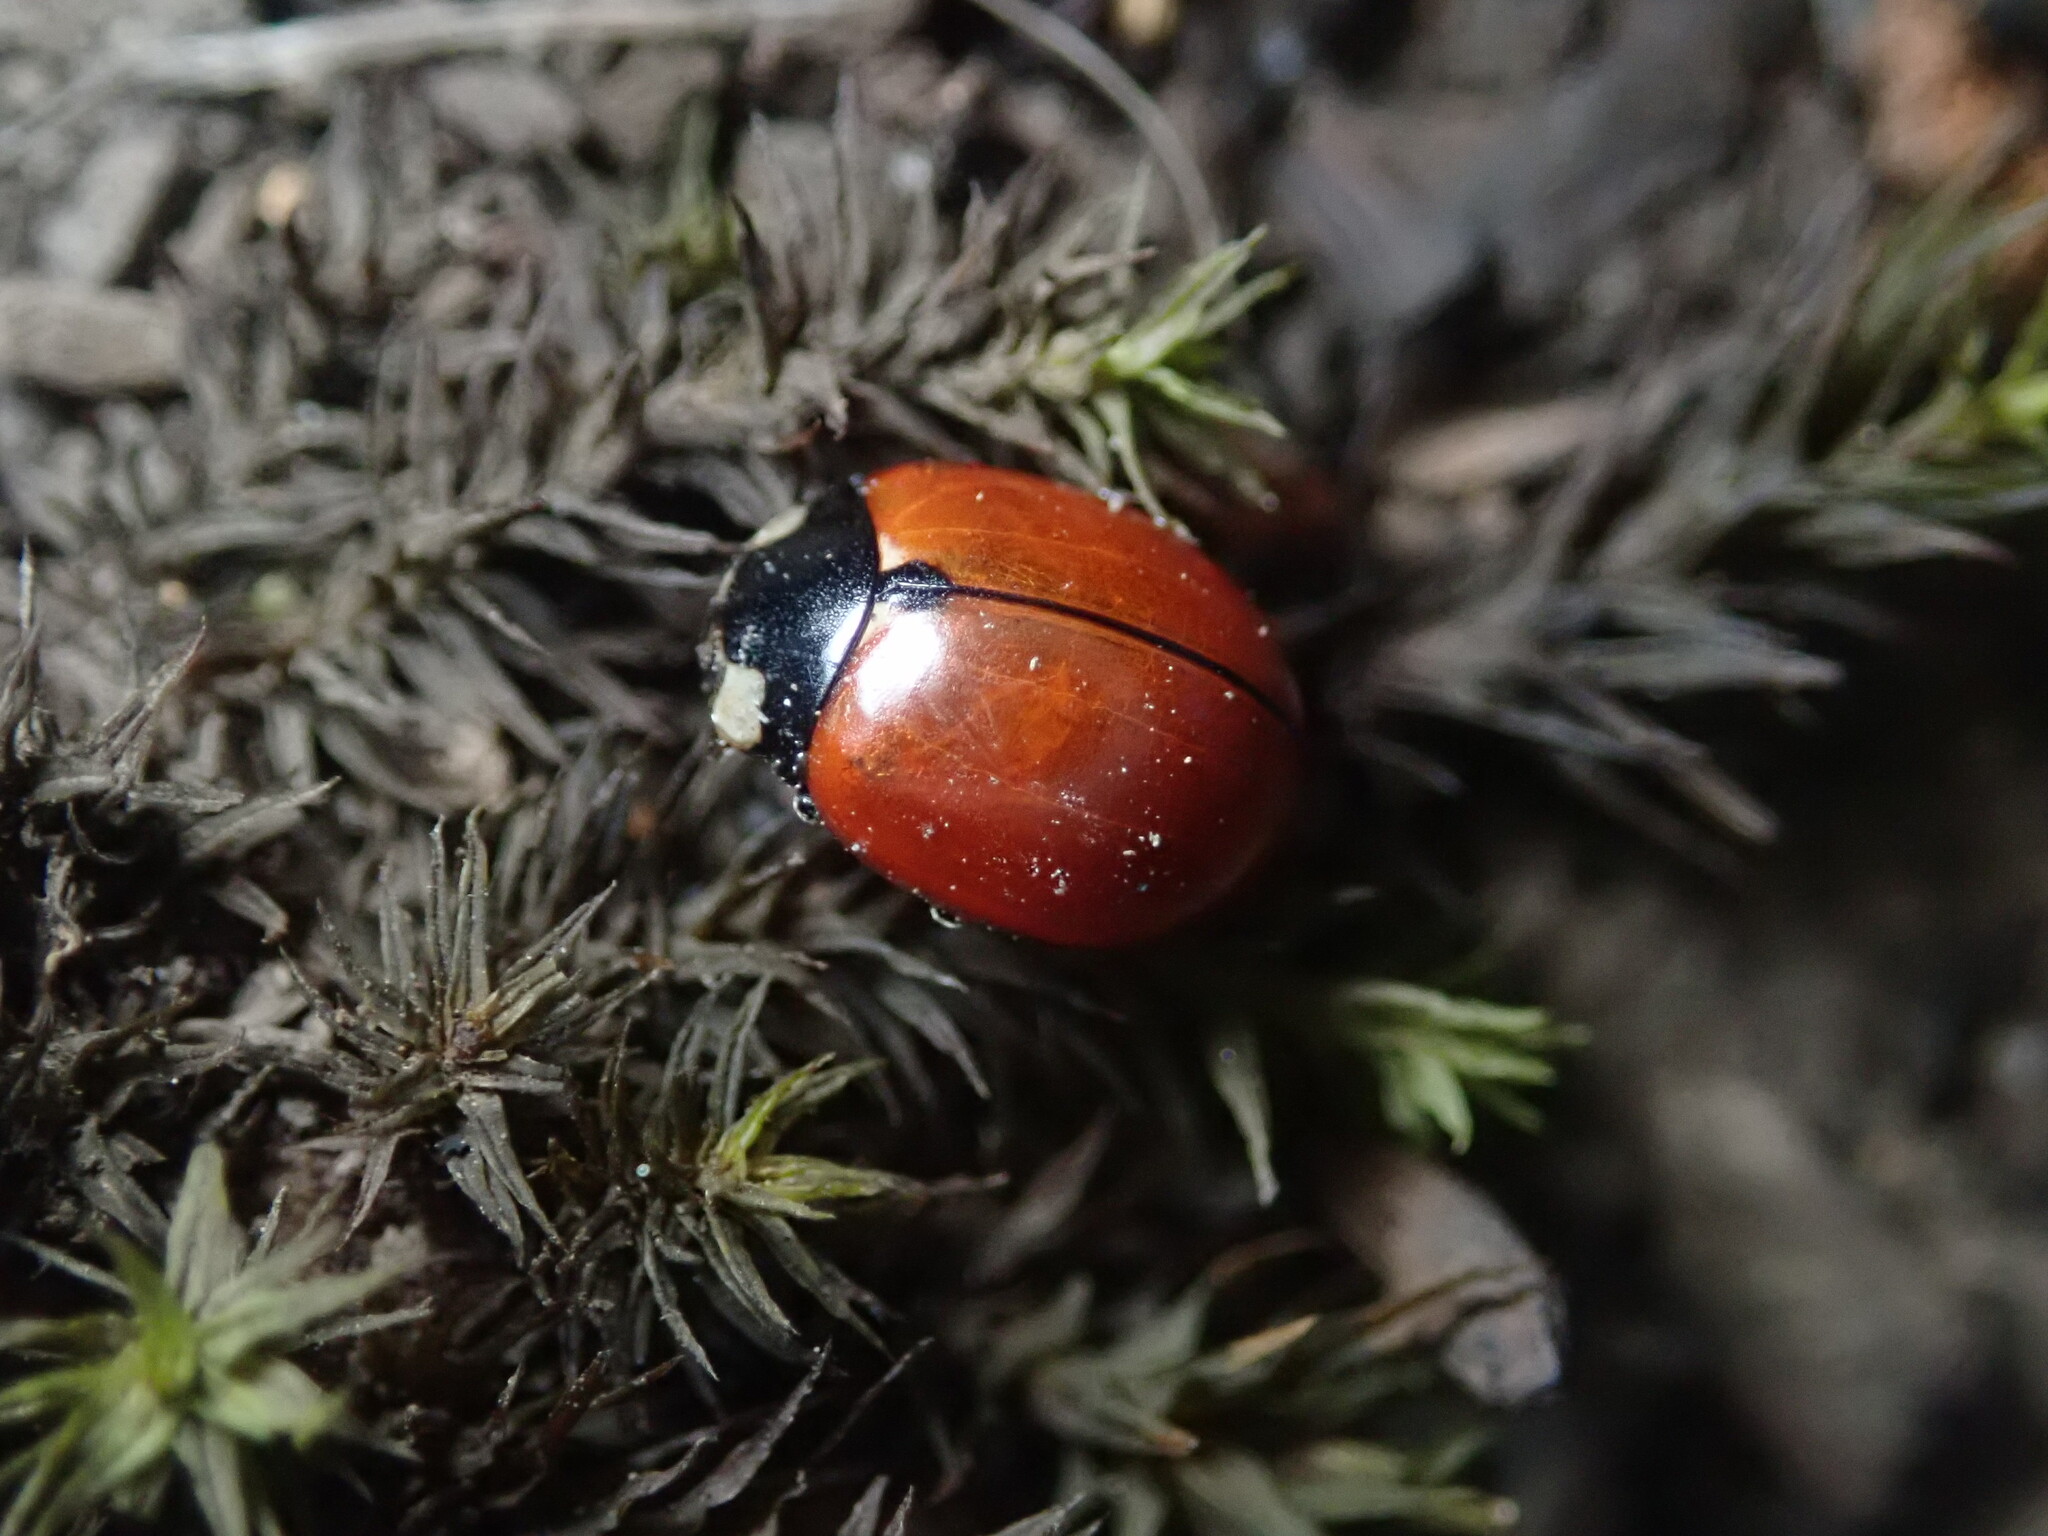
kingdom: Animalia
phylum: Arthropoda
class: Insecta
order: Coleoptera
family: Coccinellidae
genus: Coccinella
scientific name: Coccinella californica
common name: Lady beetle
